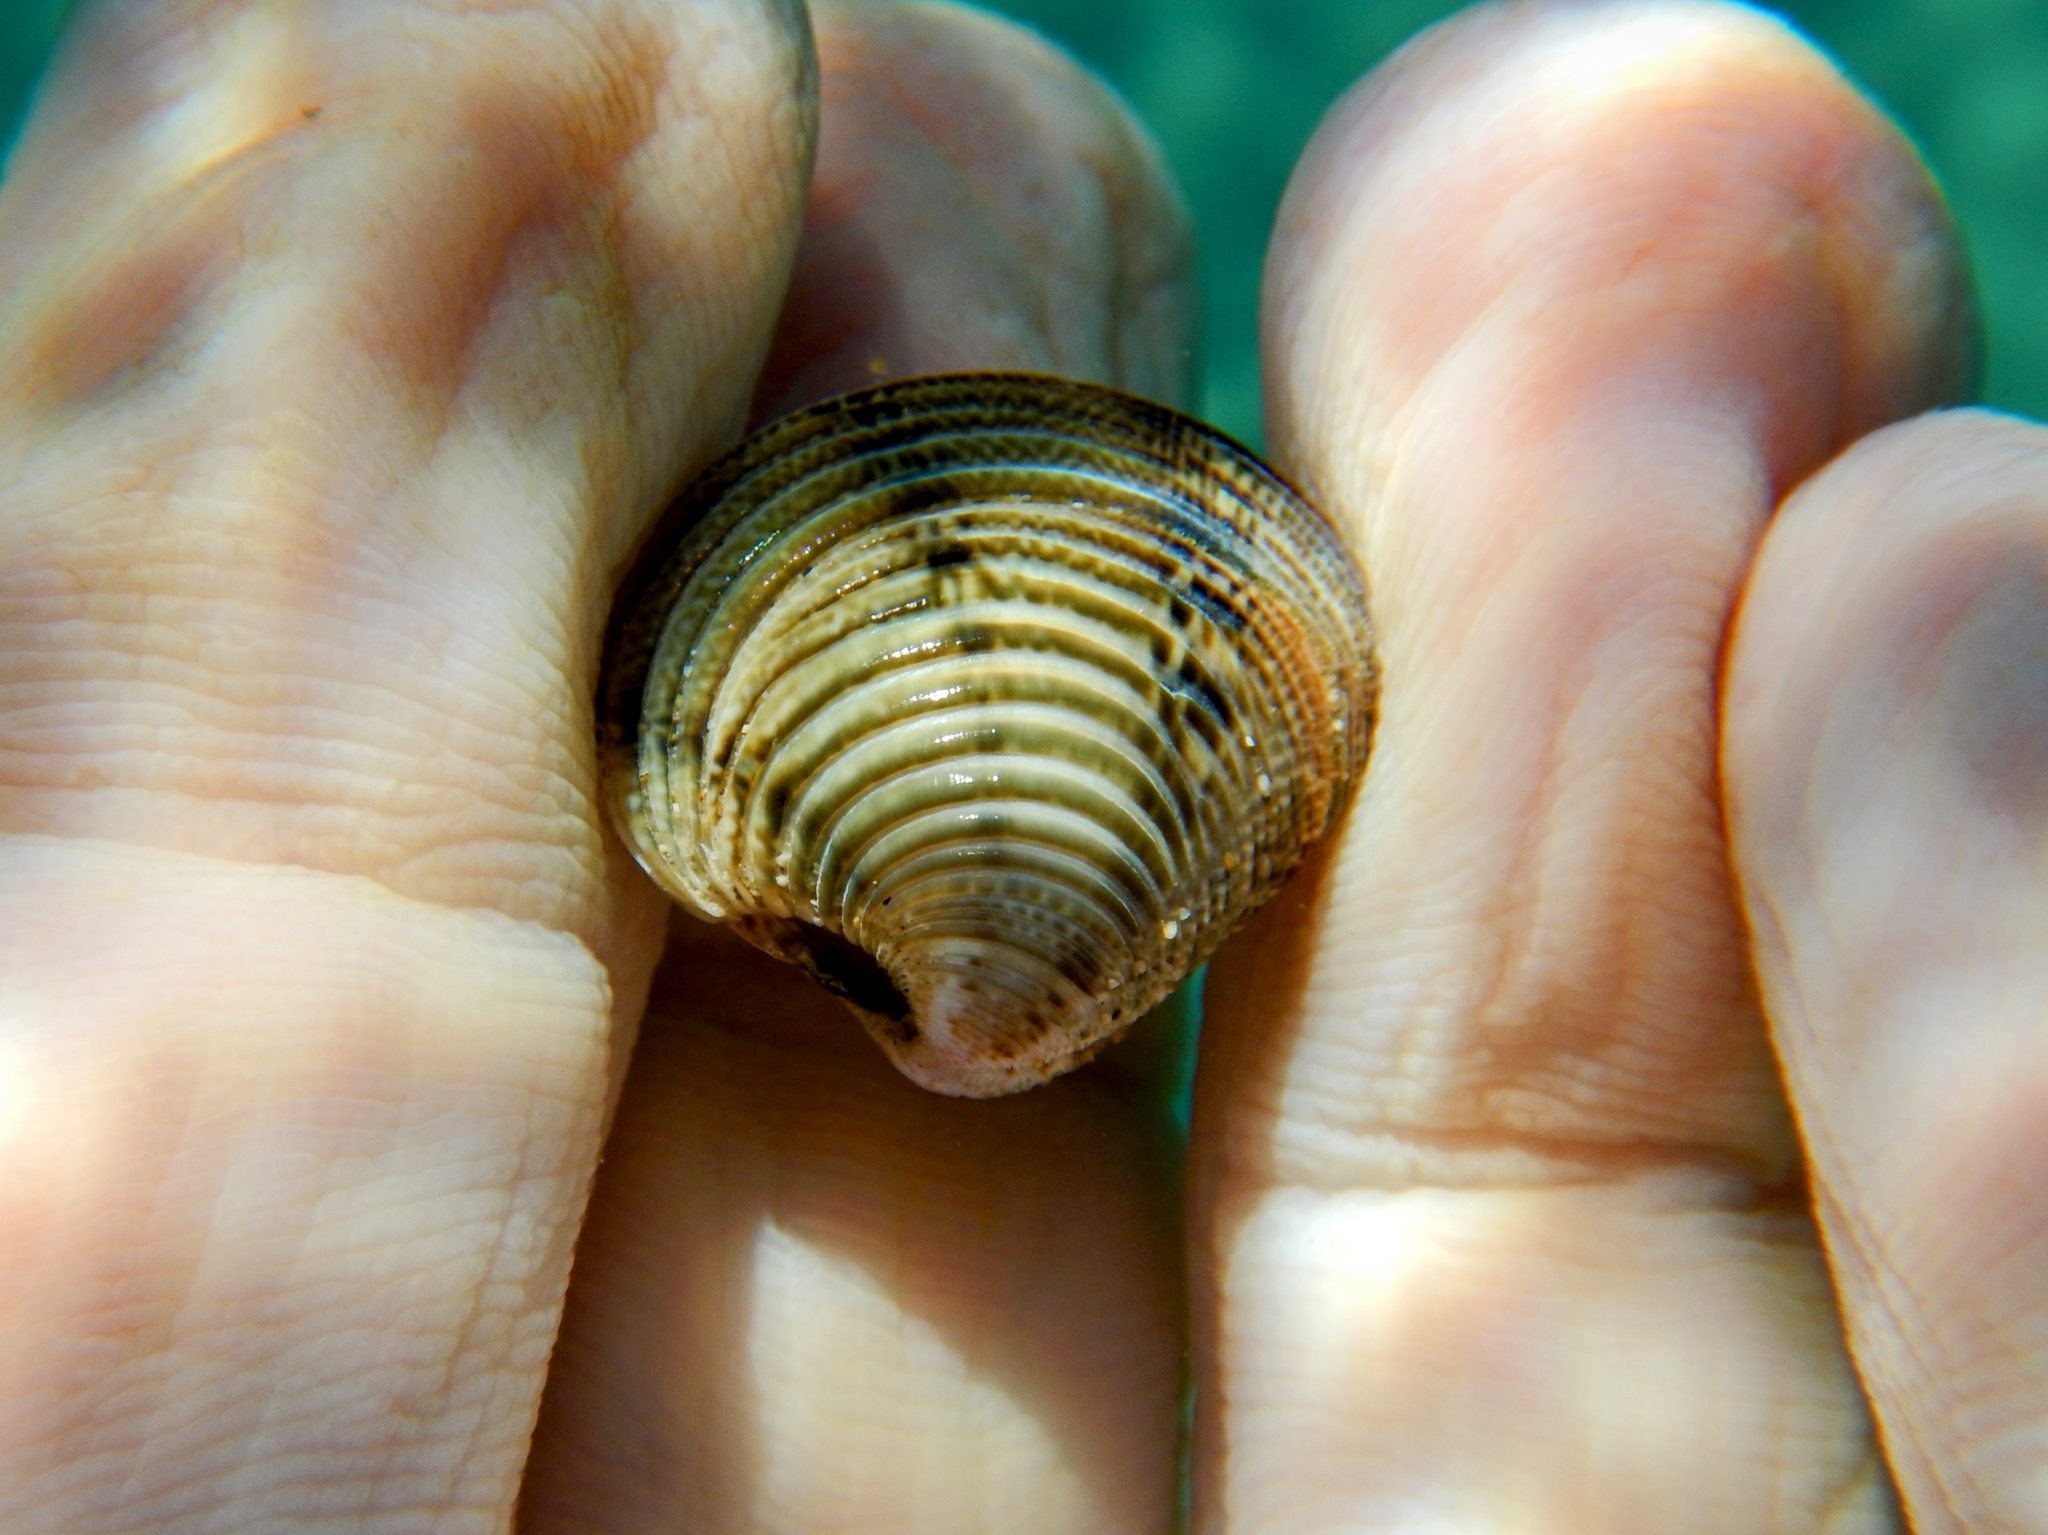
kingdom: Animalia
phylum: Mollusca
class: Bivalvia
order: Venerida
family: Veneridae
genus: Chamelea
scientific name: Chamelea gallina
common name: Chicken venus
